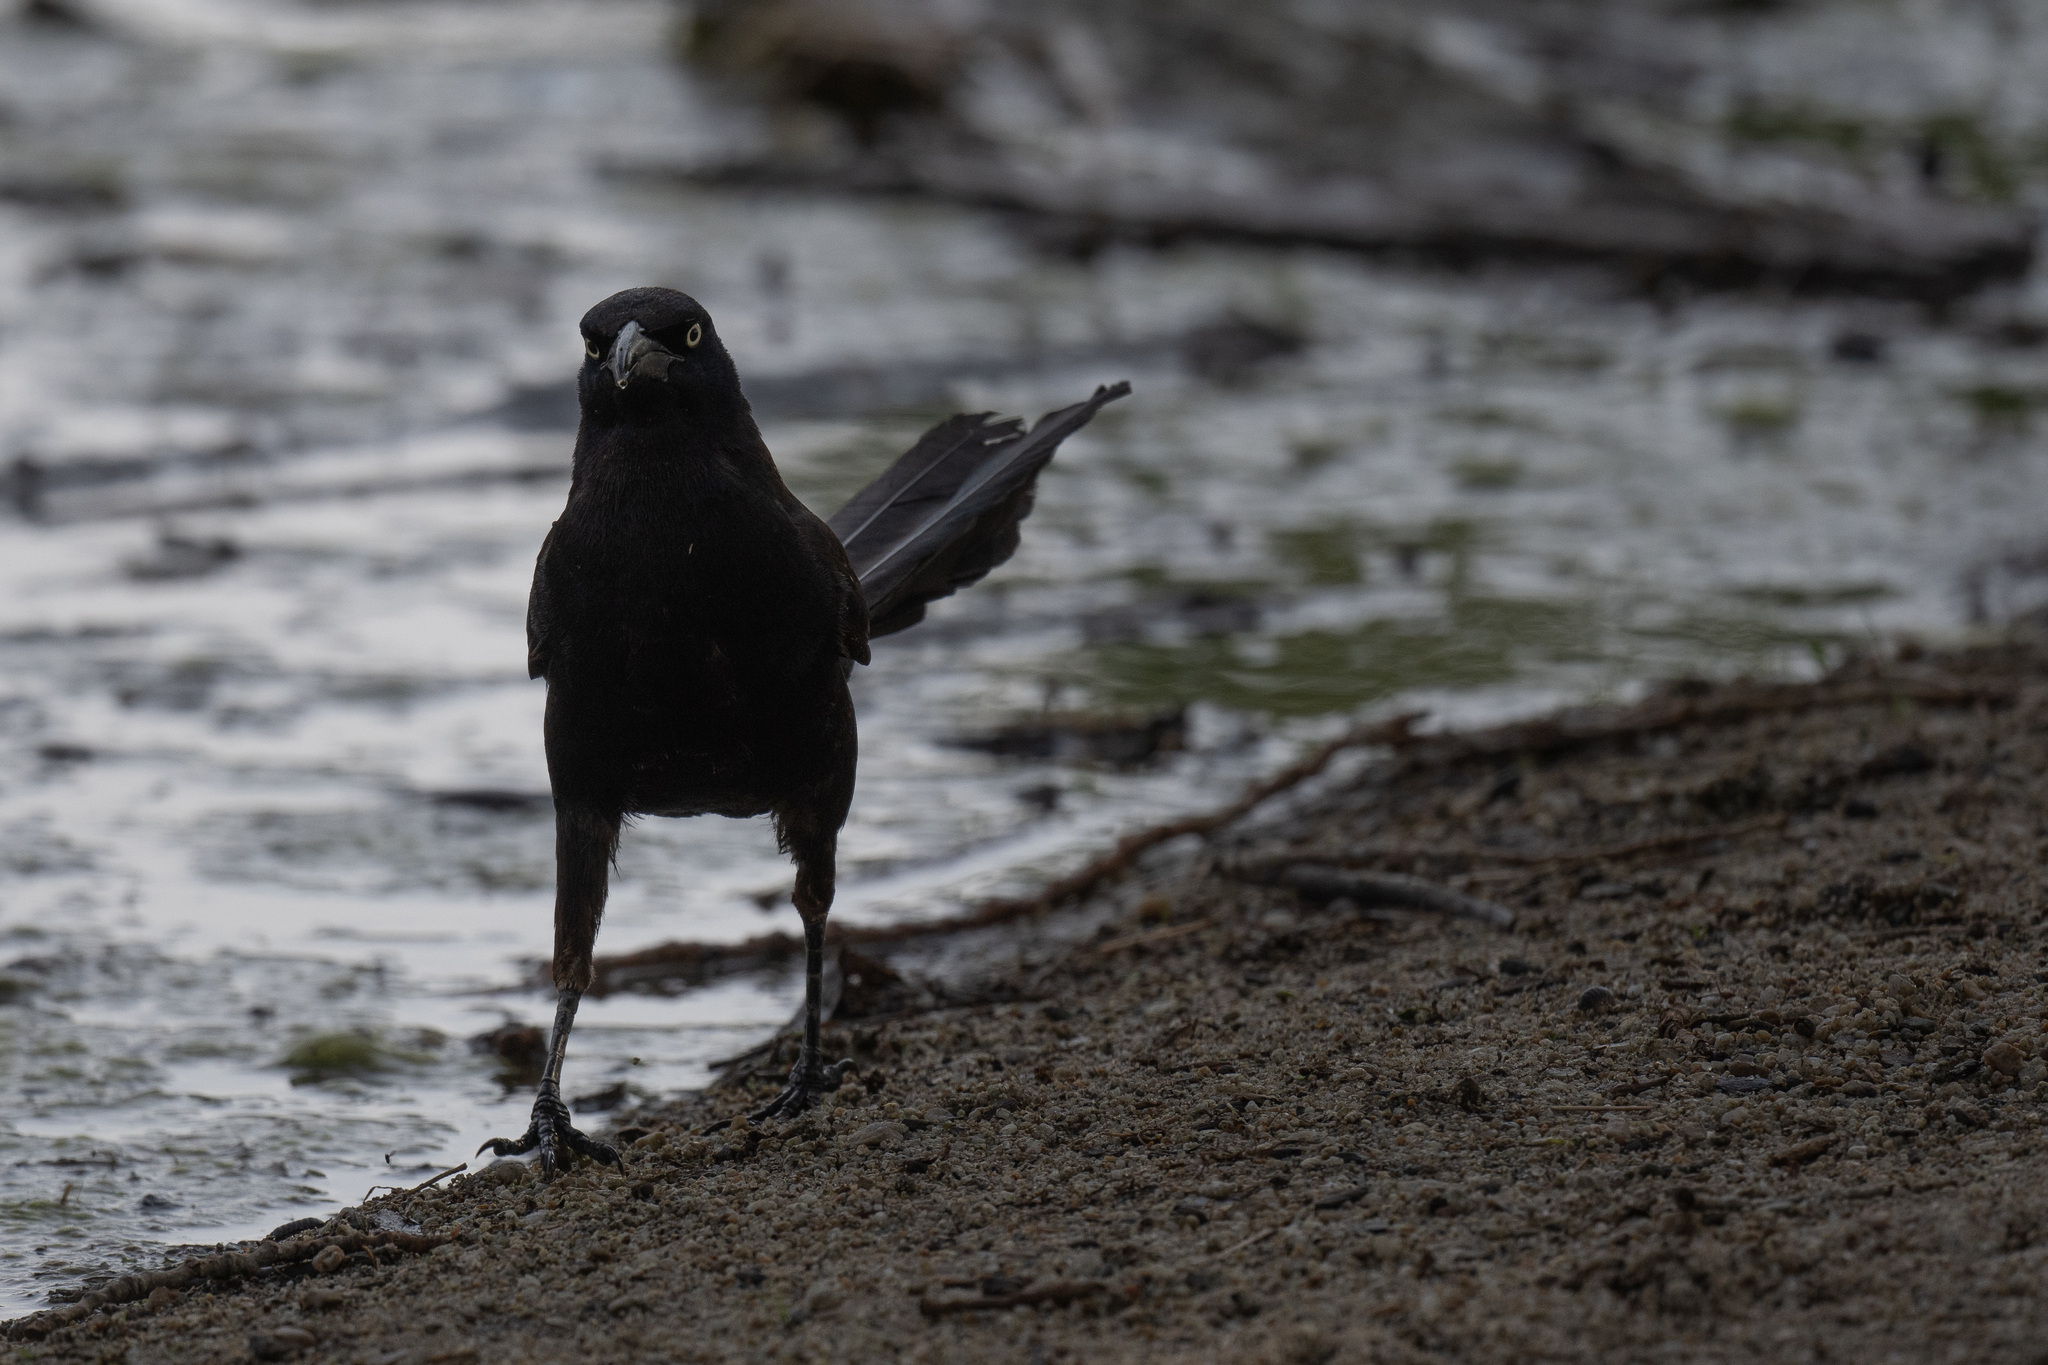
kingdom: Animalia
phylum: Chordata
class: Aves
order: Passeriformes
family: Icteridae
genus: Quiscalus
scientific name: Quiscalus mexicanus
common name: Great-tailed grackle
